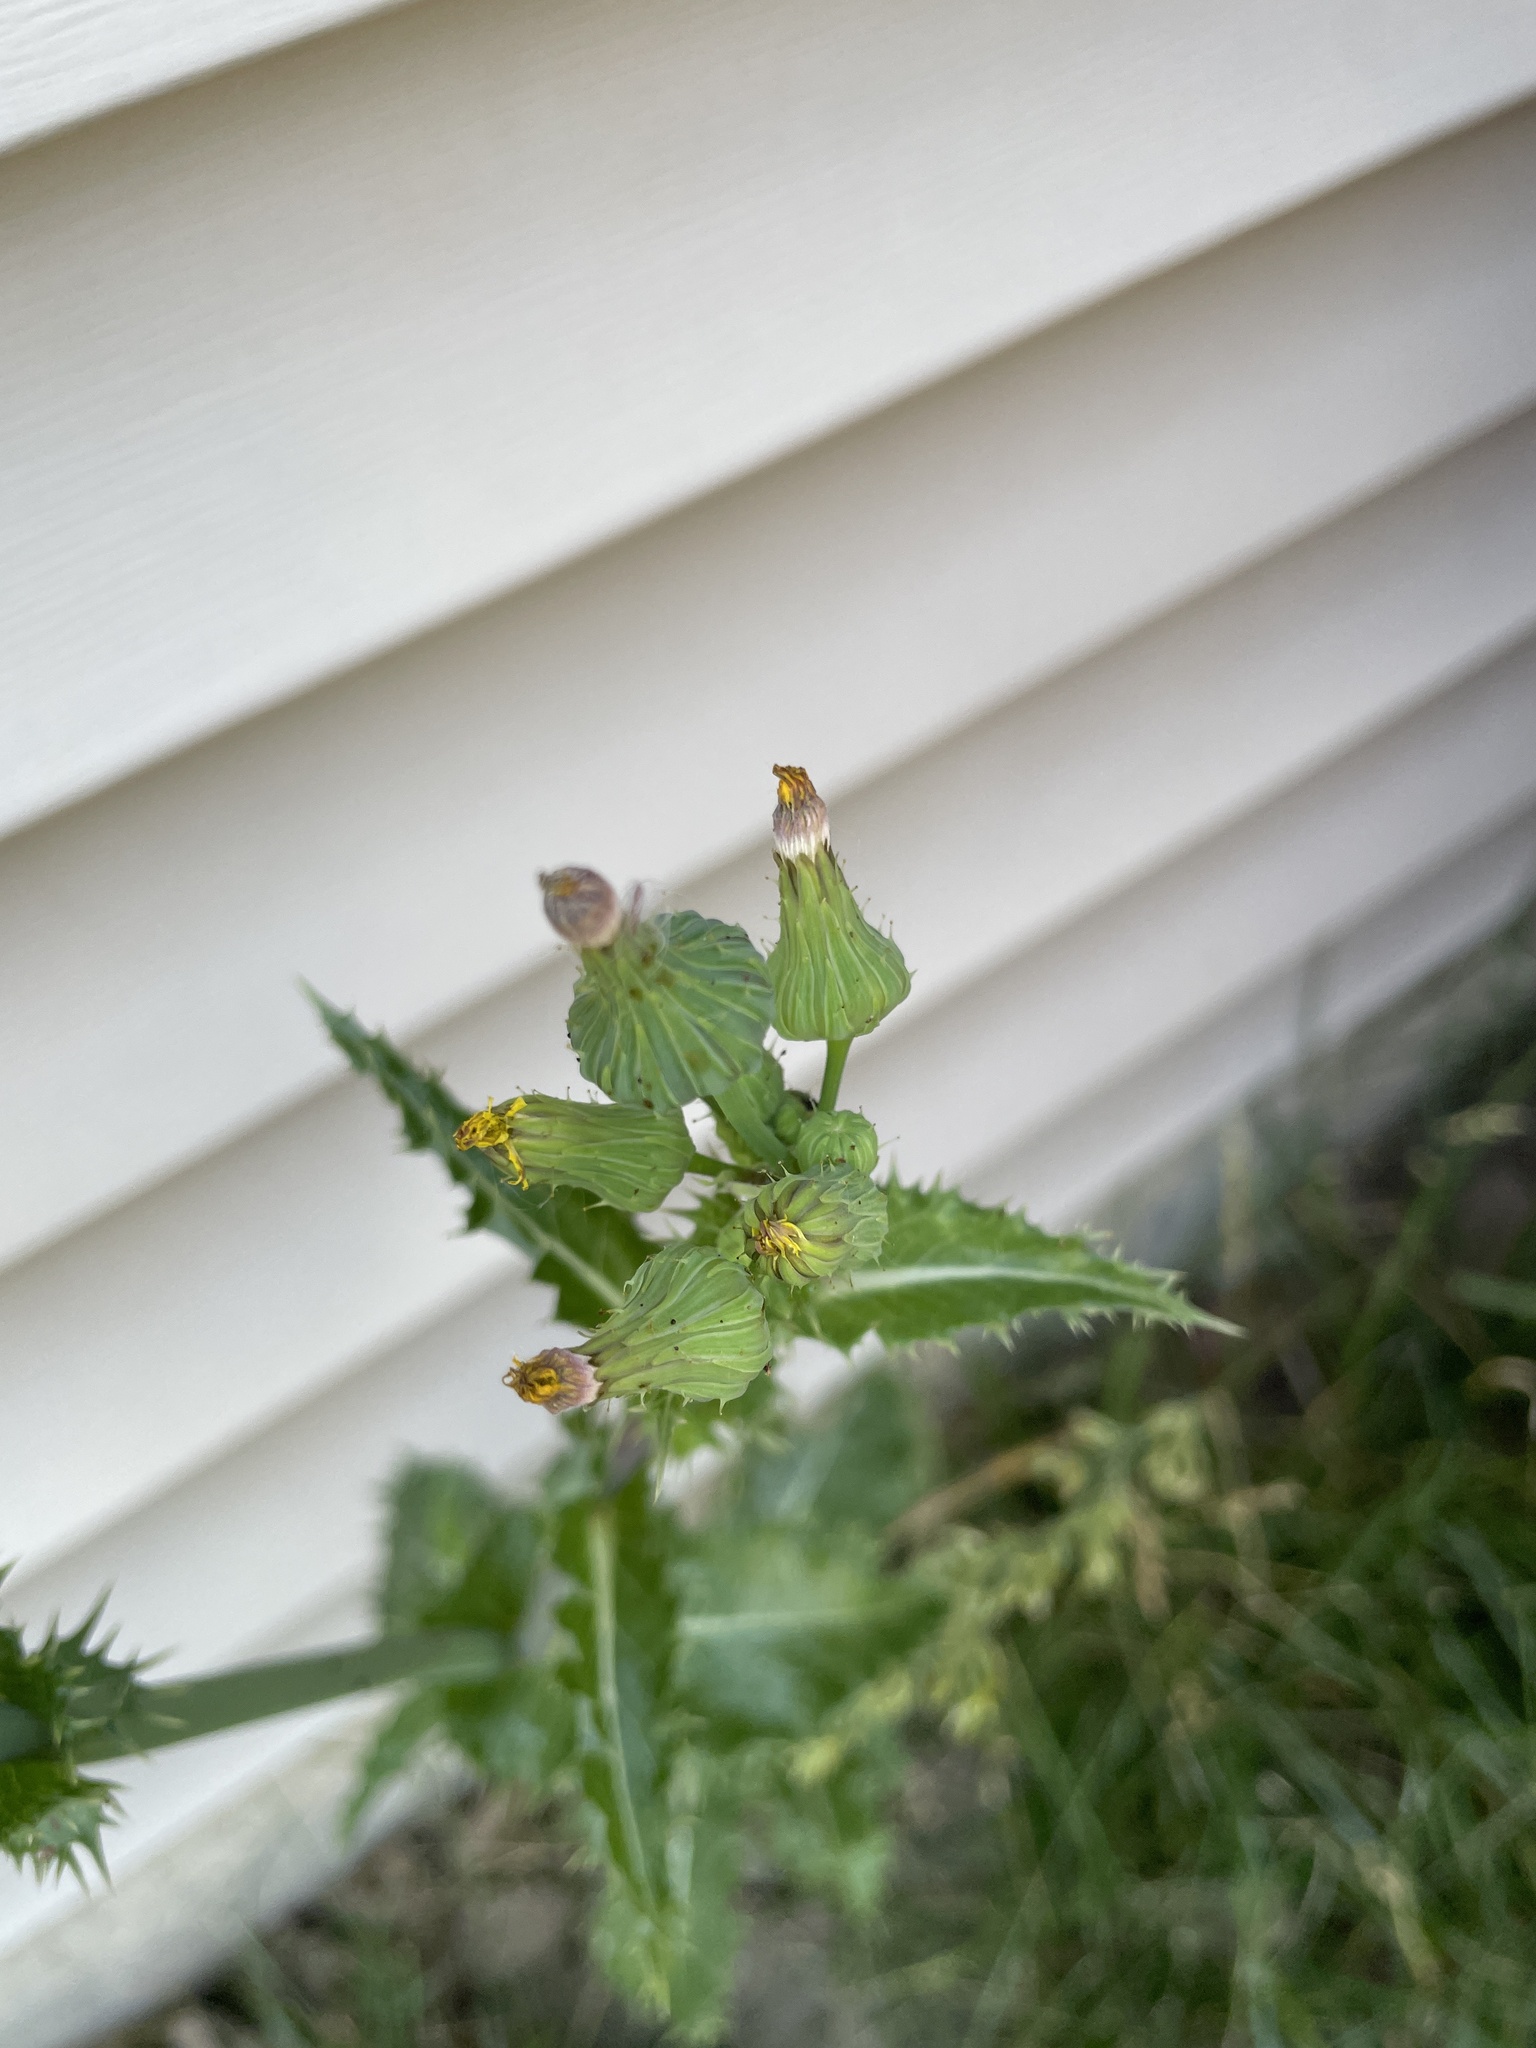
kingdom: Plantae
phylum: Tracheophyta
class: Magnoliopsida
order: Asterales
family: Asteraceae
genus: Sonchus
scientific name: Sonchus asper
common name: Prickly sow-thistle
